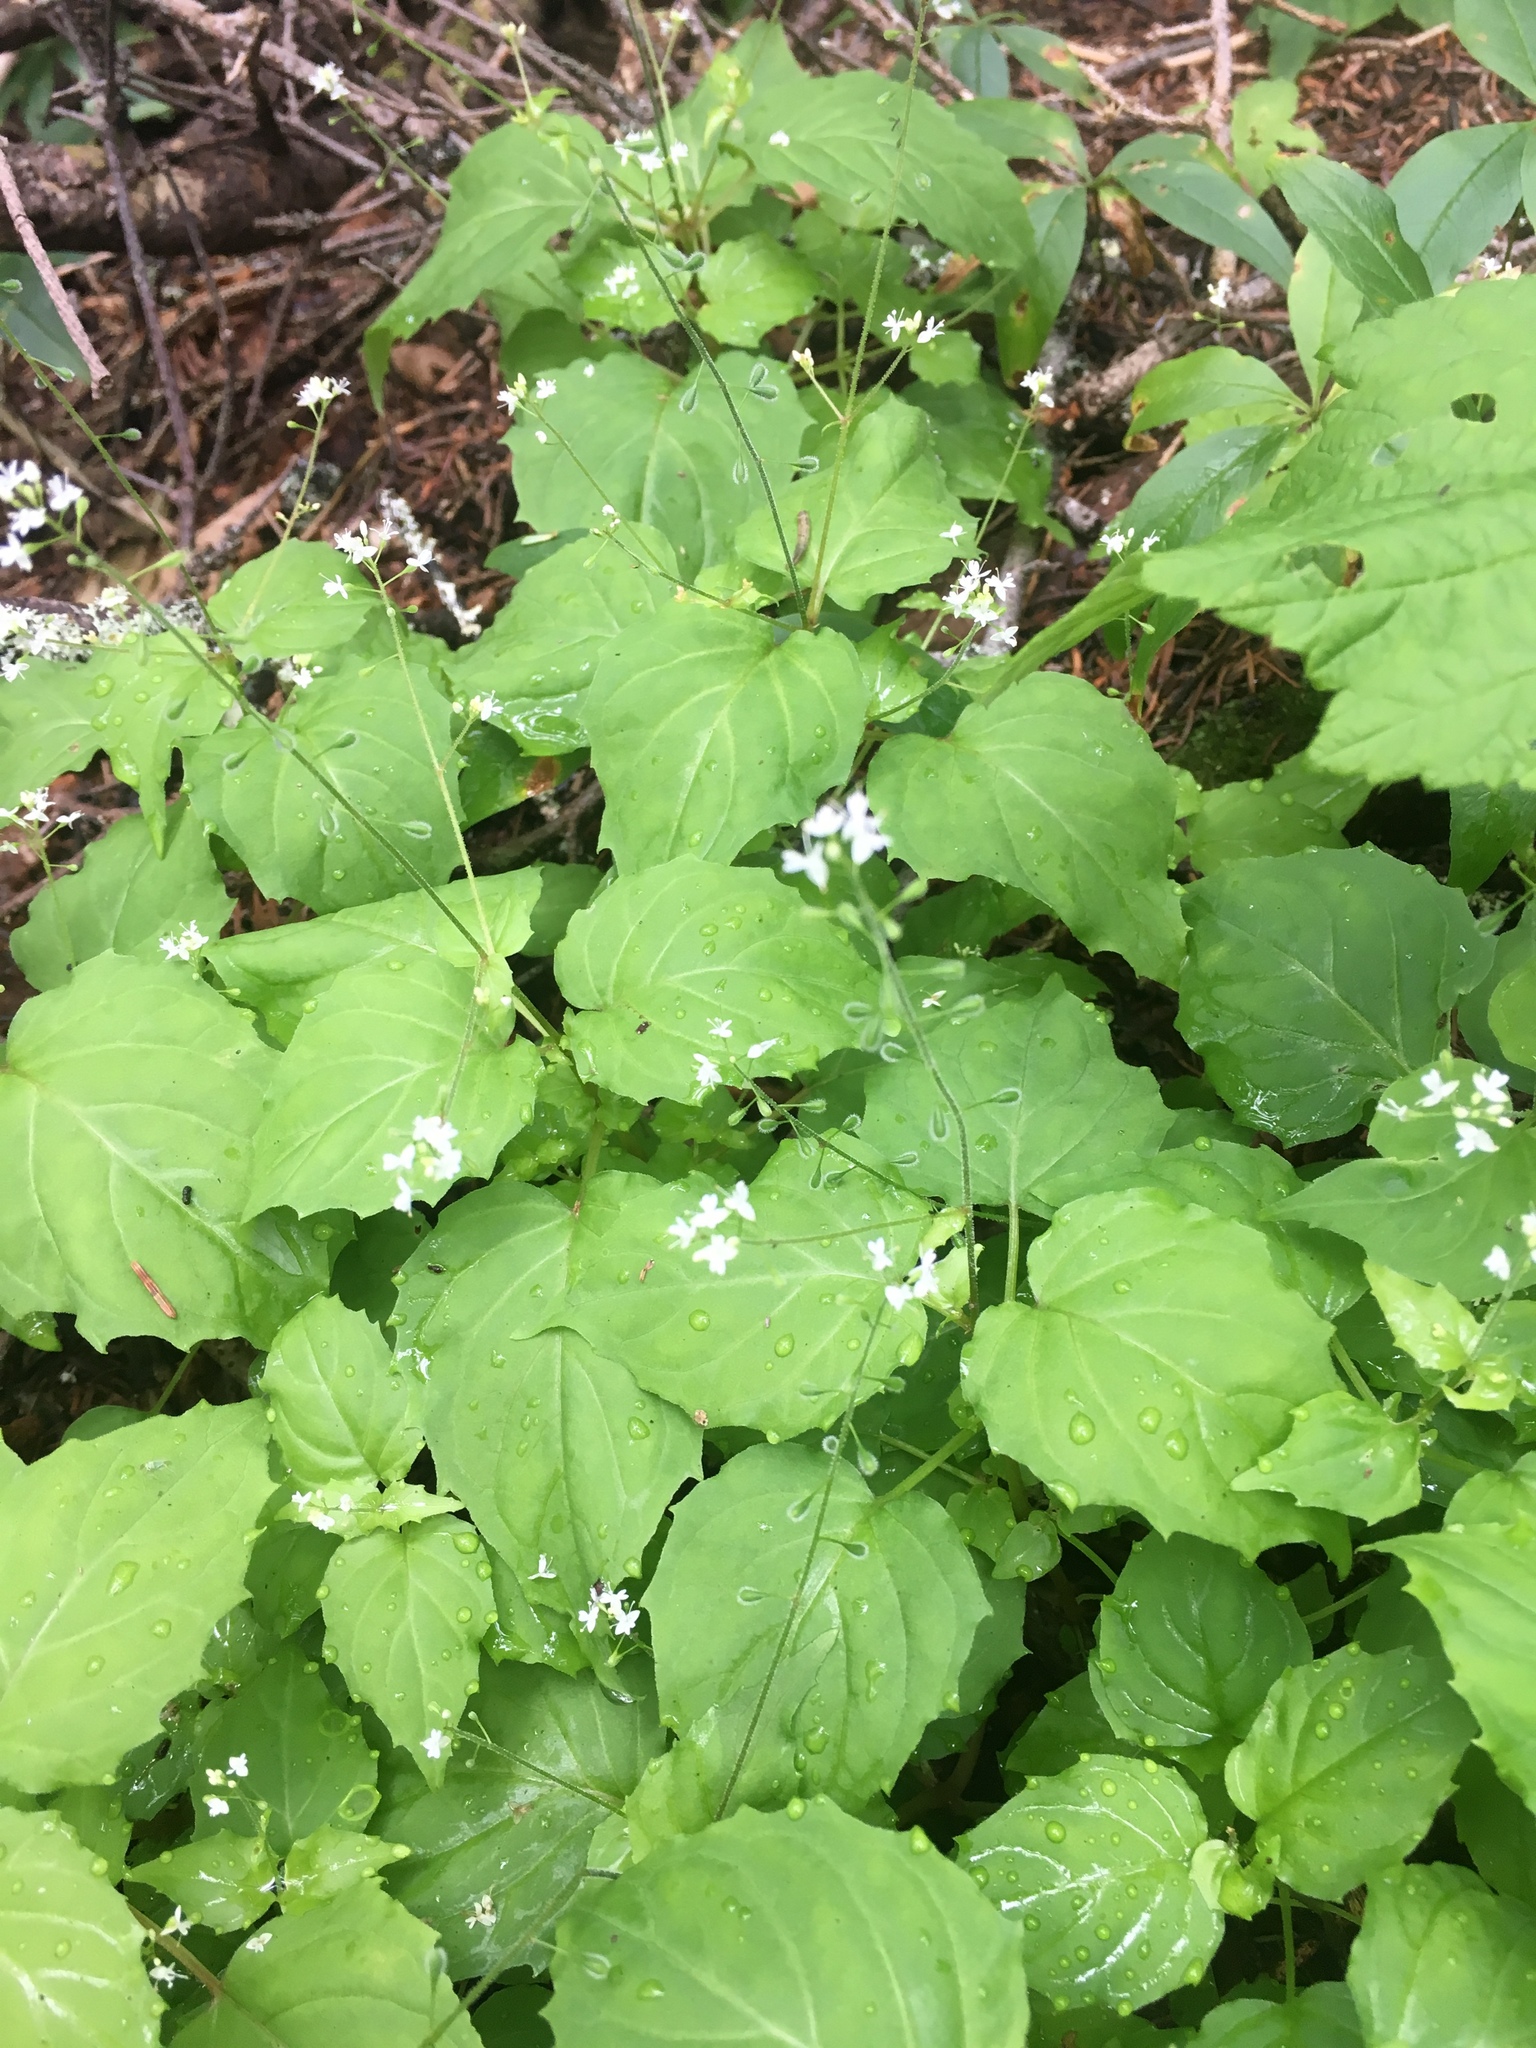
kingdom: Plantae
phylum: Tracheophyta
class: Magnoliopsida
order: Myrtales
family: Onagraceae
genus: Circaea
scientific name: Circaea alpina
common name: Alpine enchanter's-nightshade
